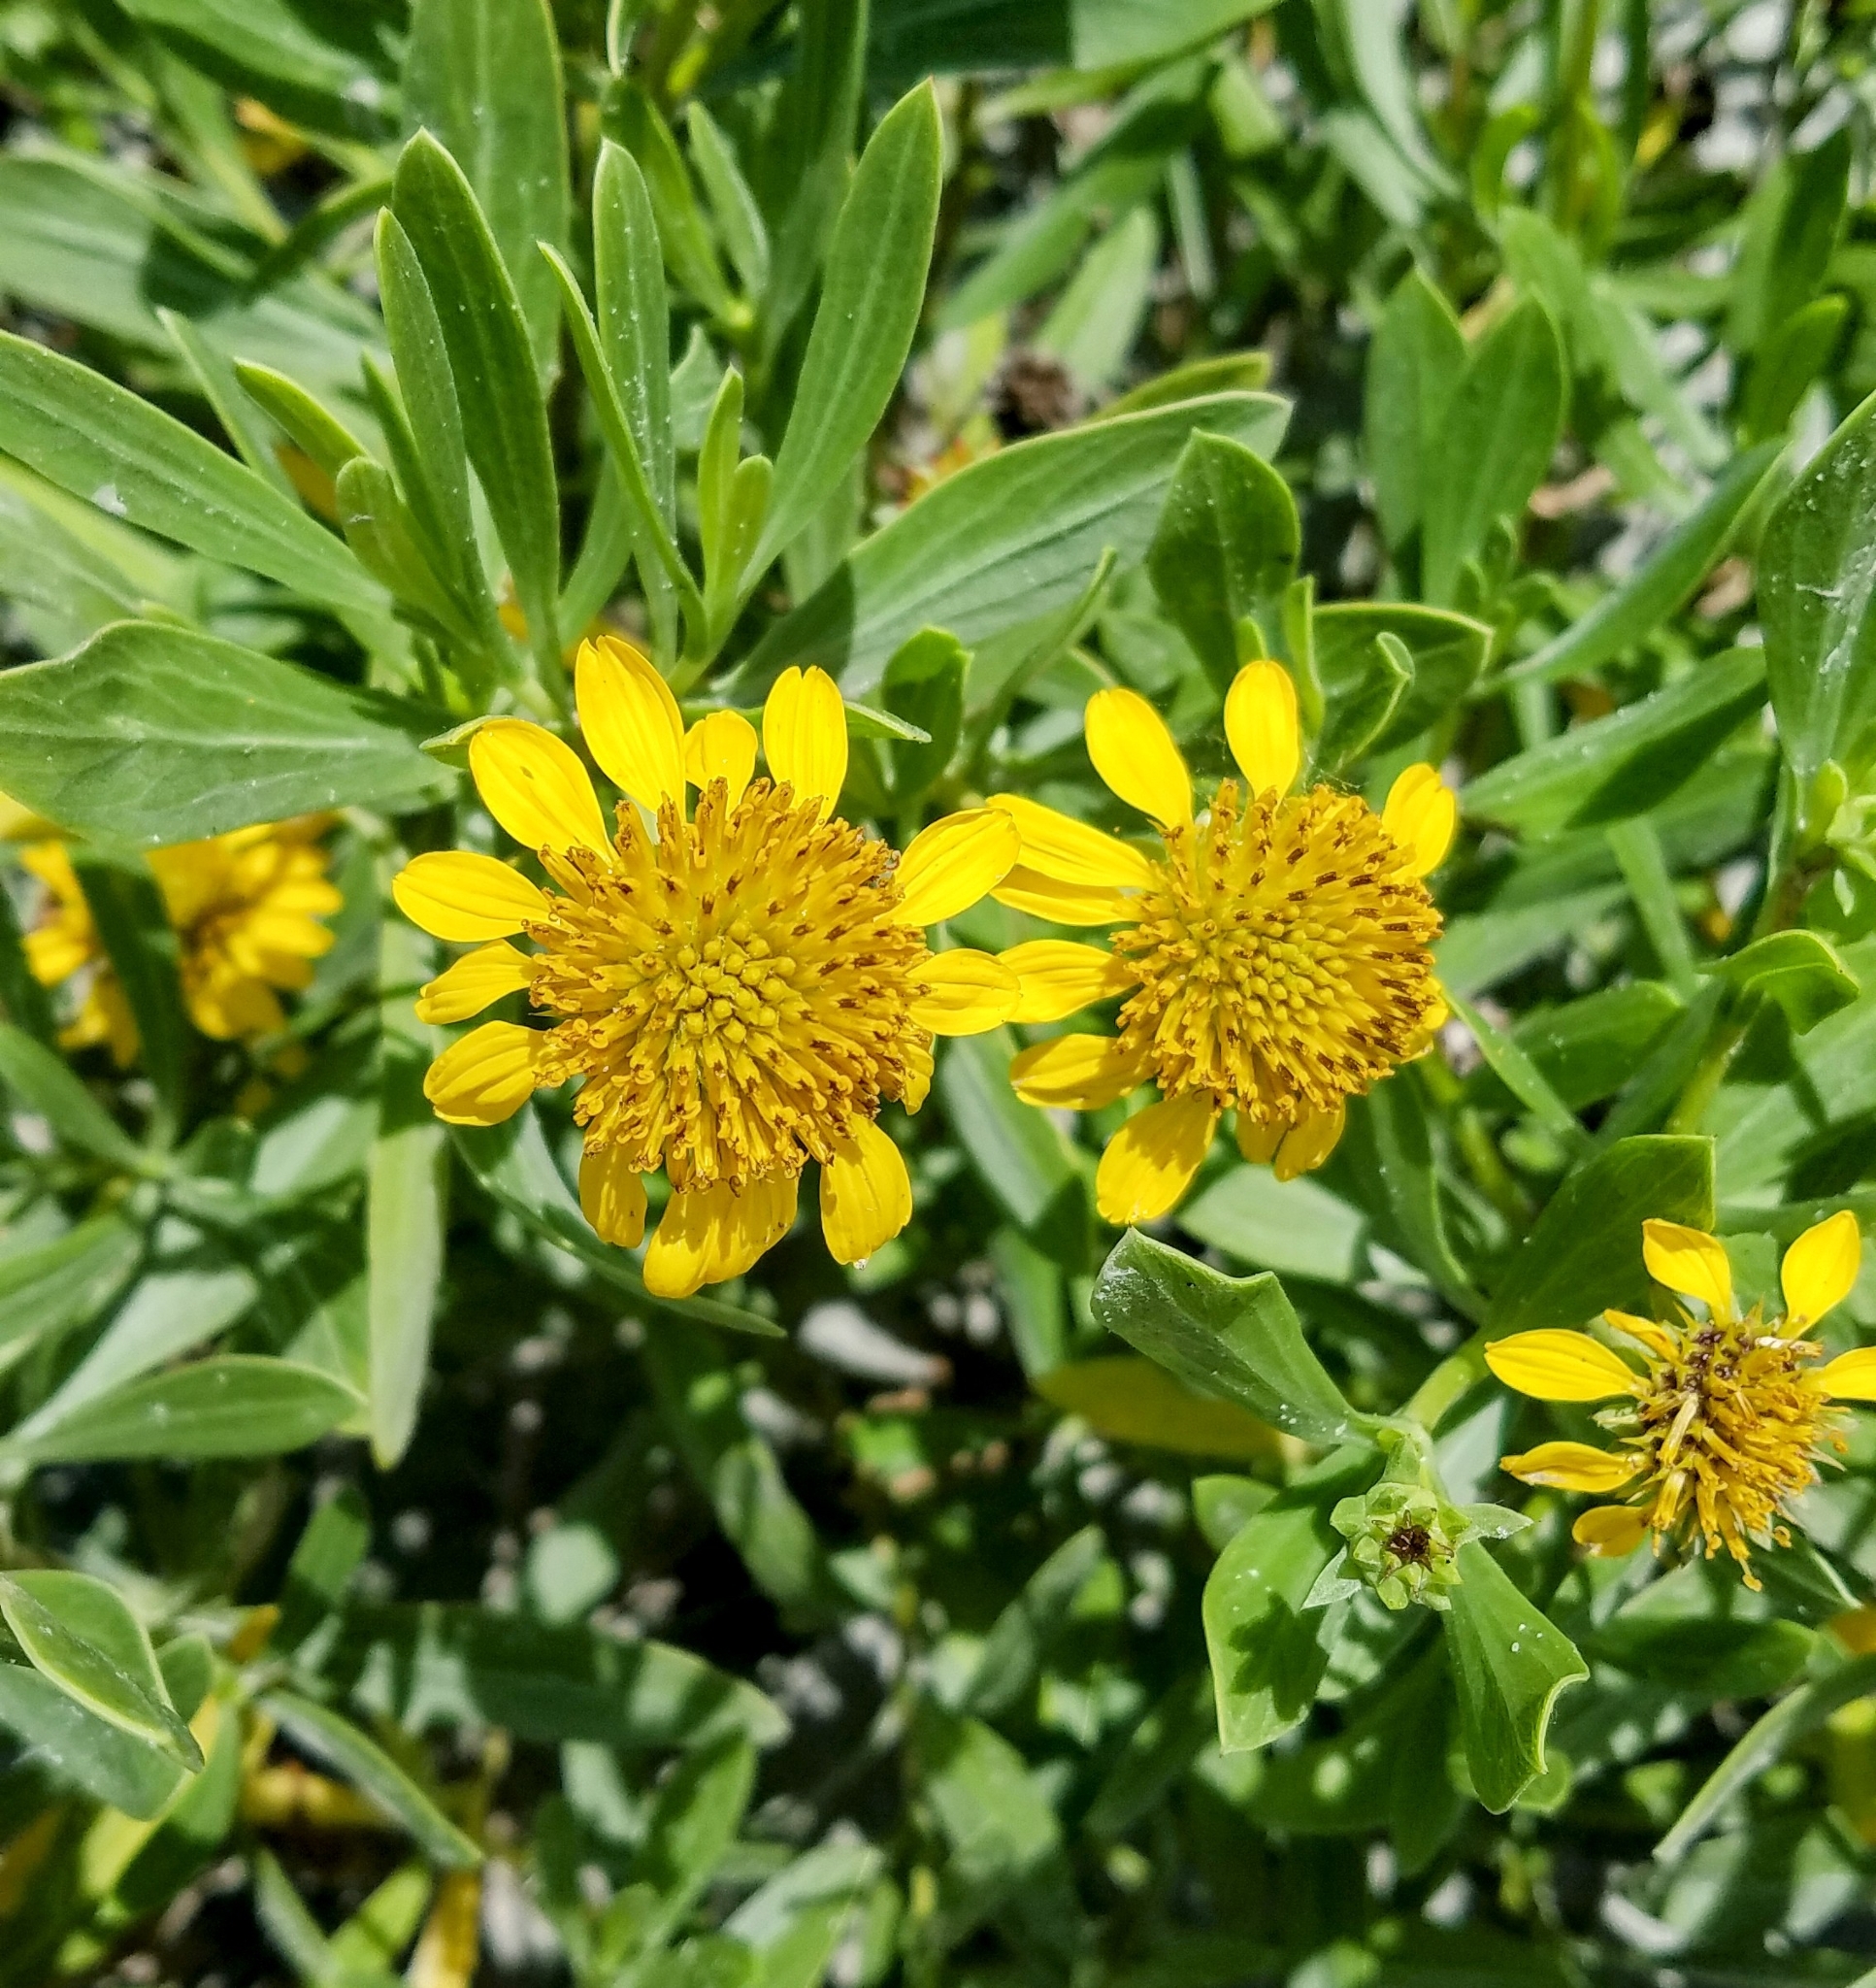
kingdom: Plantae
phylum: Tracheophyta
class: Magnoliopsida
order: Asterales
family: Asteraceae
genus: Borrichia
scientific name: Borrichia frutescens
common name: Sea oxeye
